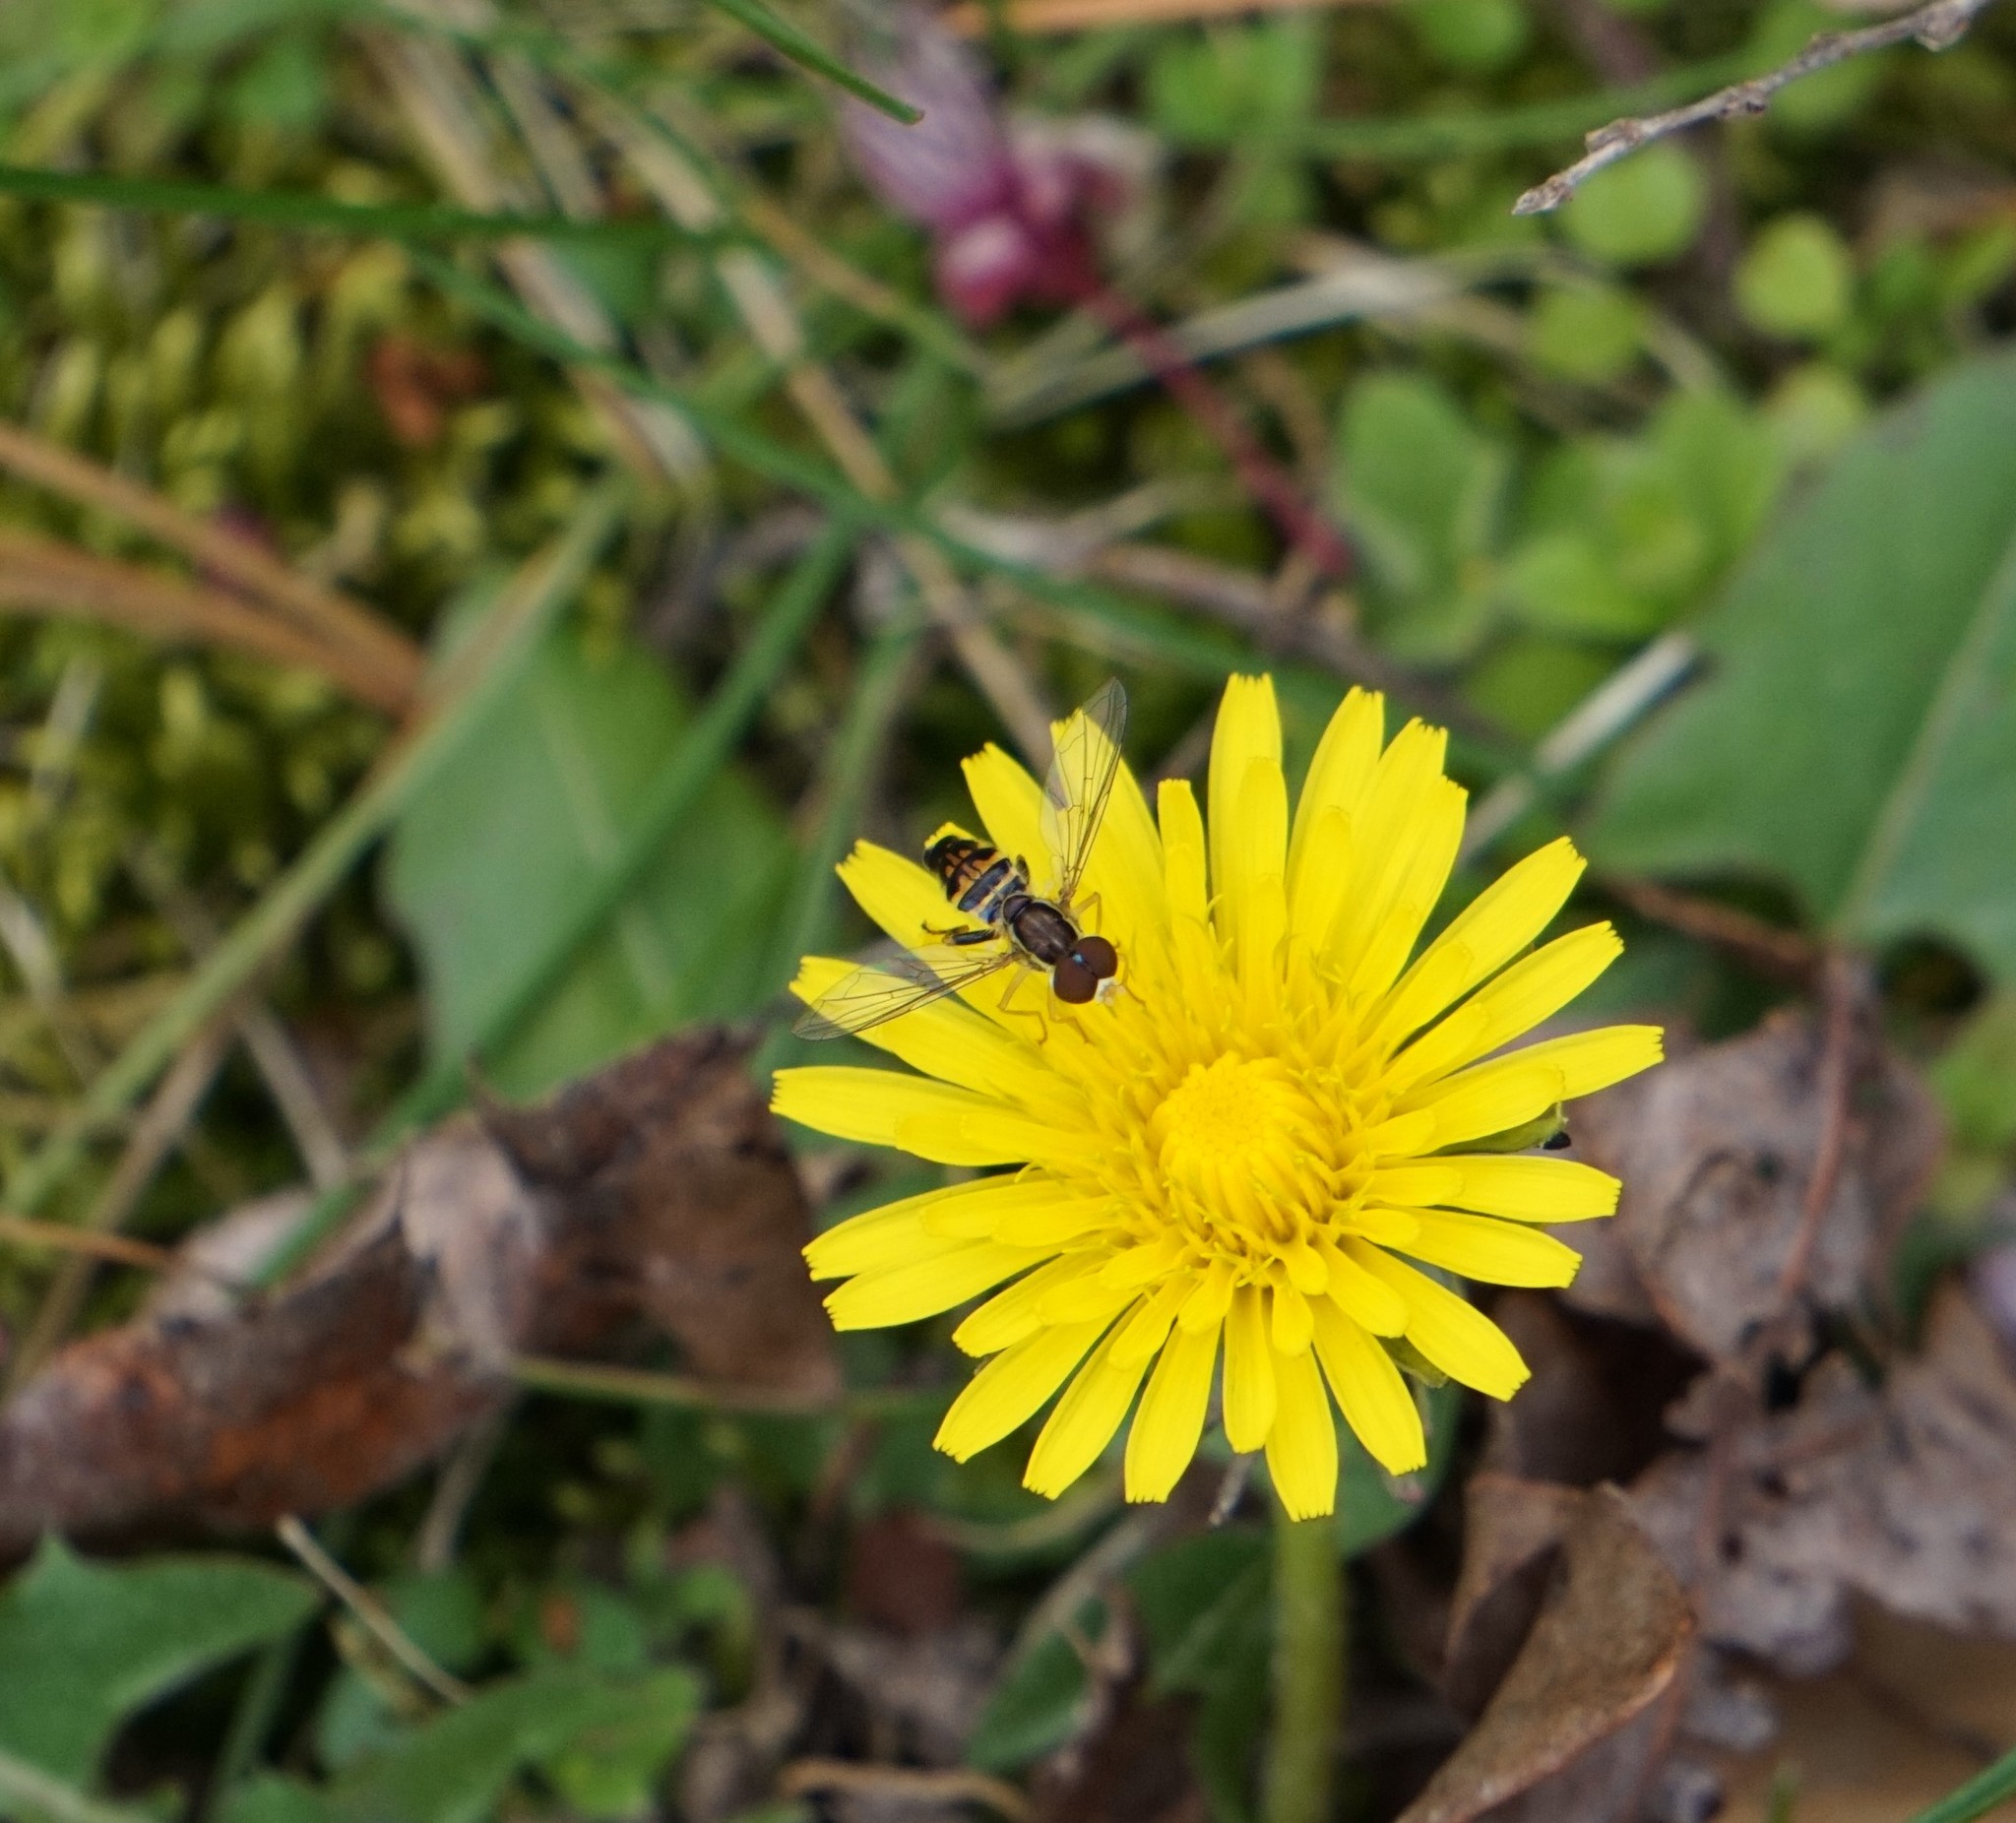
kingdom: Animalia
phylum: Arthropoda
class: Insecta
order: Diptera
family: Syrphidae
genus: Toxomerus
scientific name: Toxomerus geminatus
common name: Eastern calligrapher
